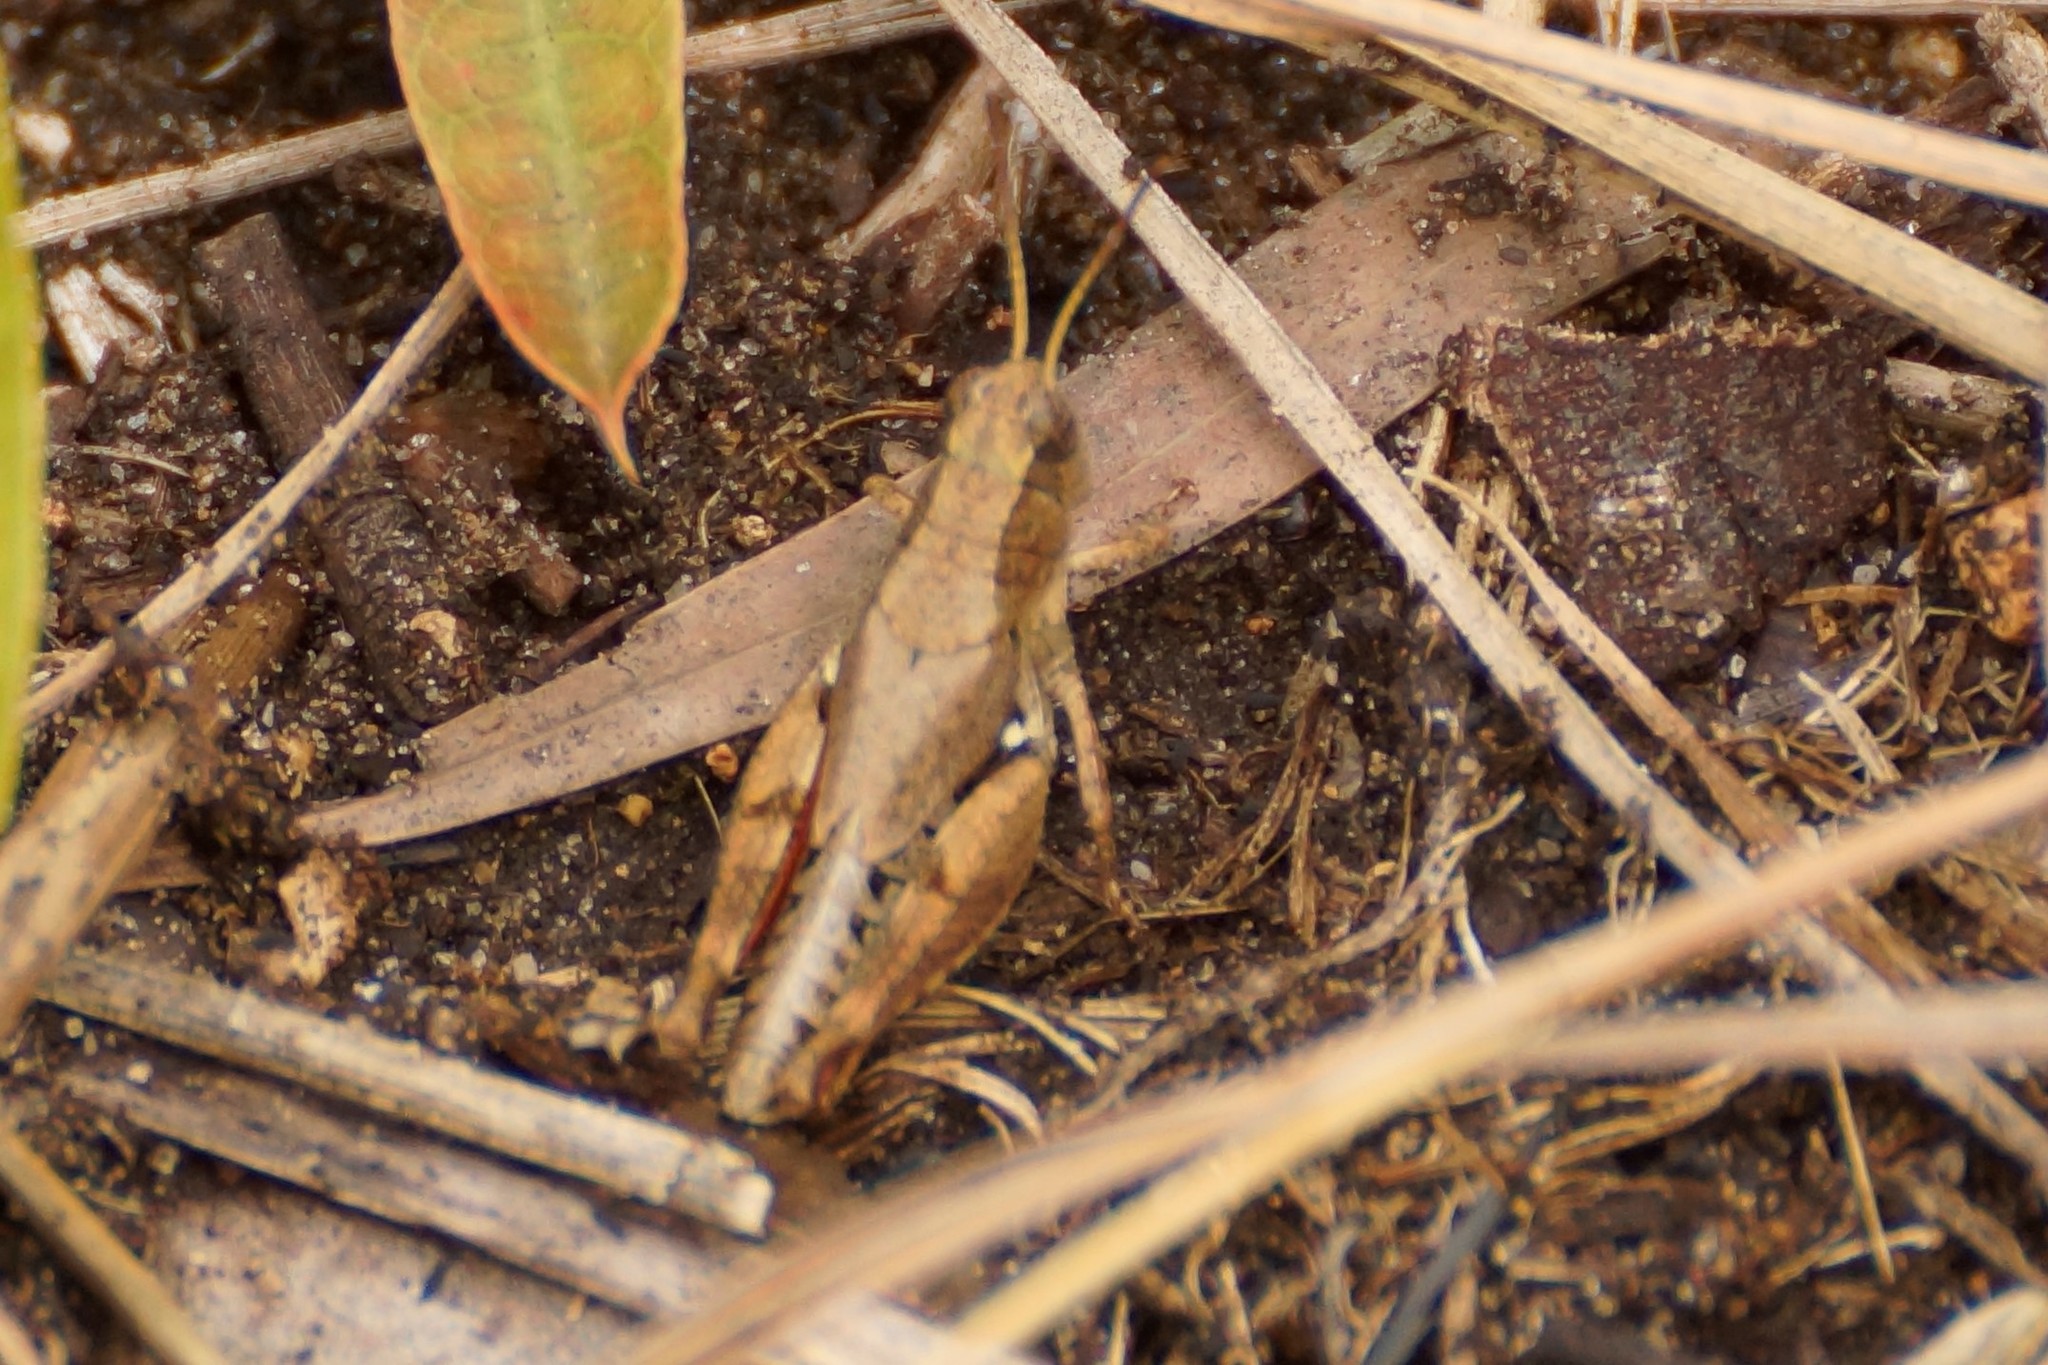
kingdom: Animalia
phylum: Arthropoda
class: Insecta
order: Orthoptera
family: Acrididae
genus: Phaulacridium
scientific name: Phaulacridium vittatum
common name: Wingless grasshopper
